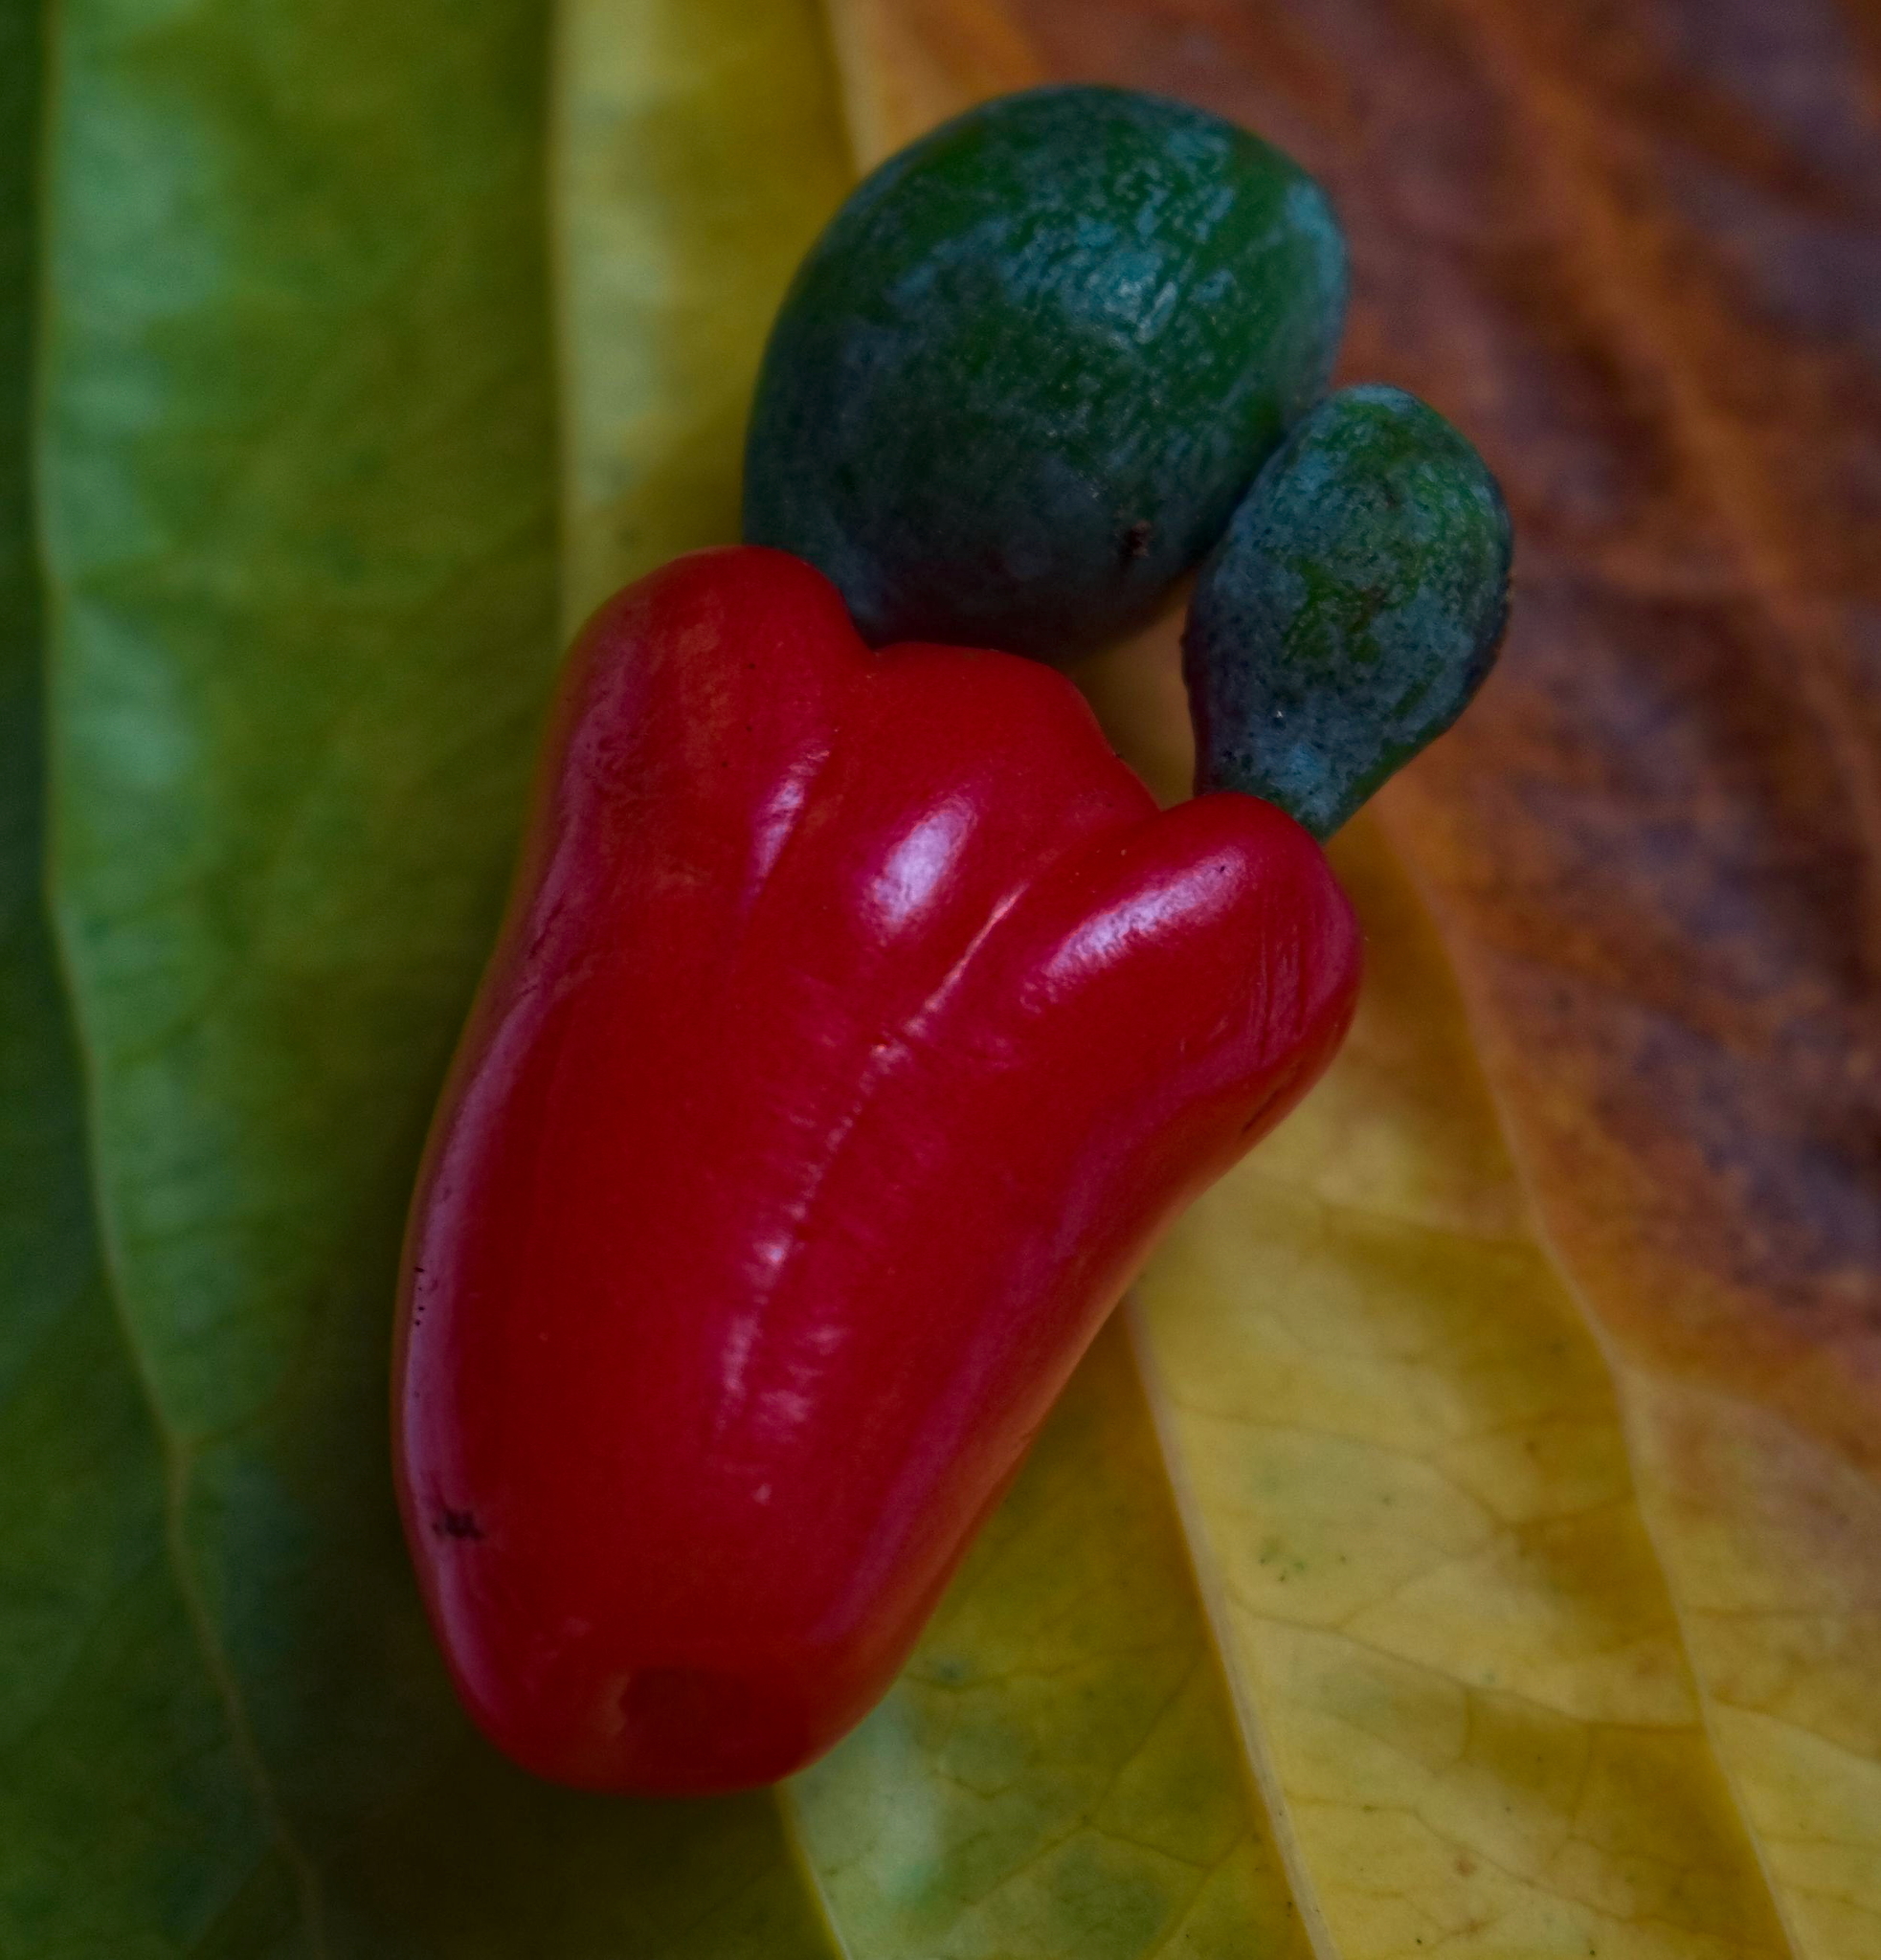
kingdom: Plantae
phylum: Tracheophyta
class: Pinopsida
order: Pinales
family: Podocarpaceae
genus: Podocarpus
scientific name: Podocarpus dispermus
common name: Broad-leaved brown pine
